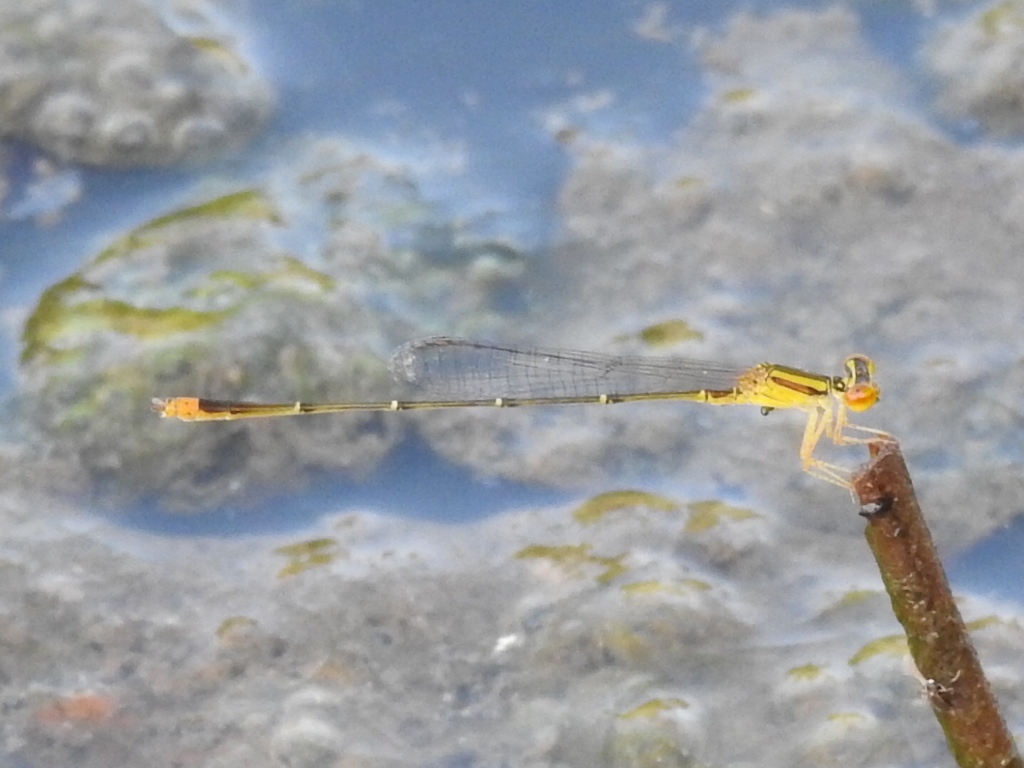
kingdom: Animalia
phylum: Arthropoda
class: Insecta
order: Odonata
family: Coenagrionidae
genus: Enallagma
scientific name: Enallagma signatum
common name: Orange bluet
